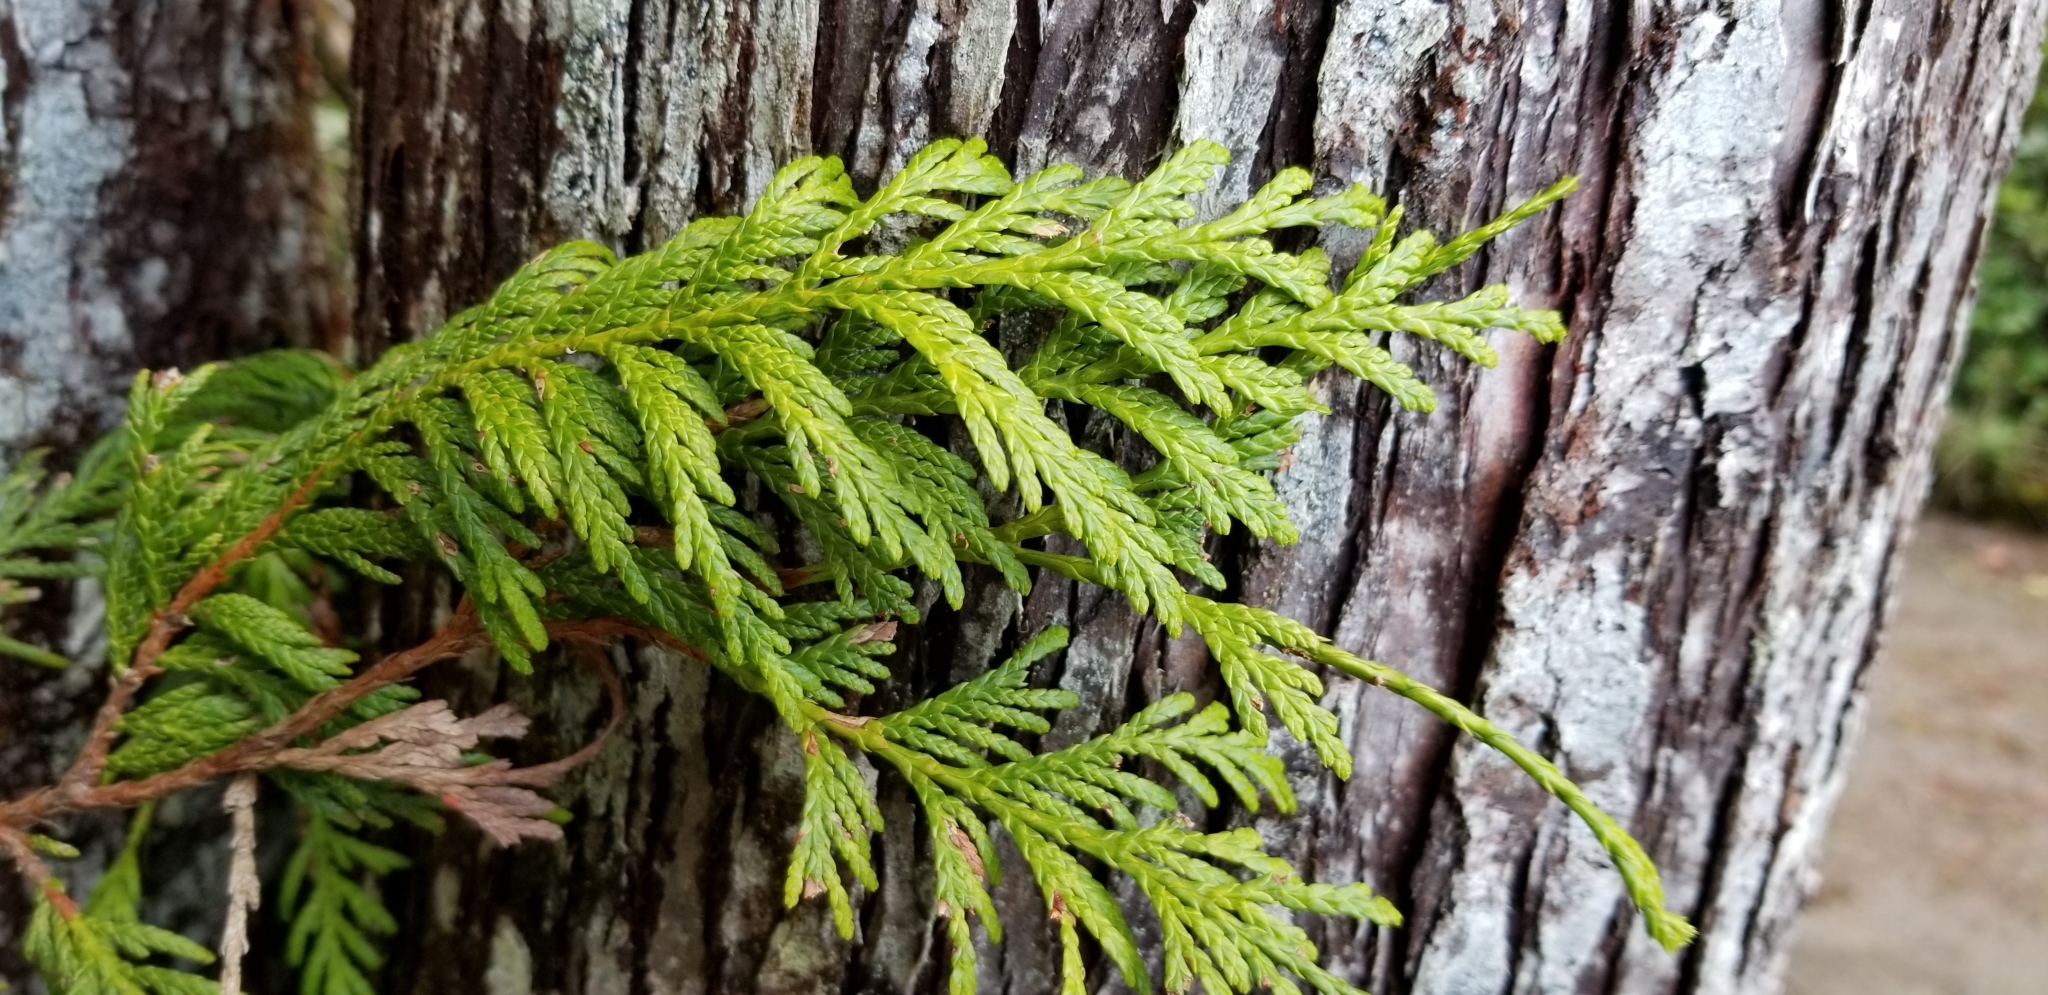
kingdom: Plantae
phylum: Tracheophyta
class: Pinopsida
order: Pinales
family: Cupressaceae
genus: Thuja
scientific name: Thuja plicata
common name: Western red-cedar
